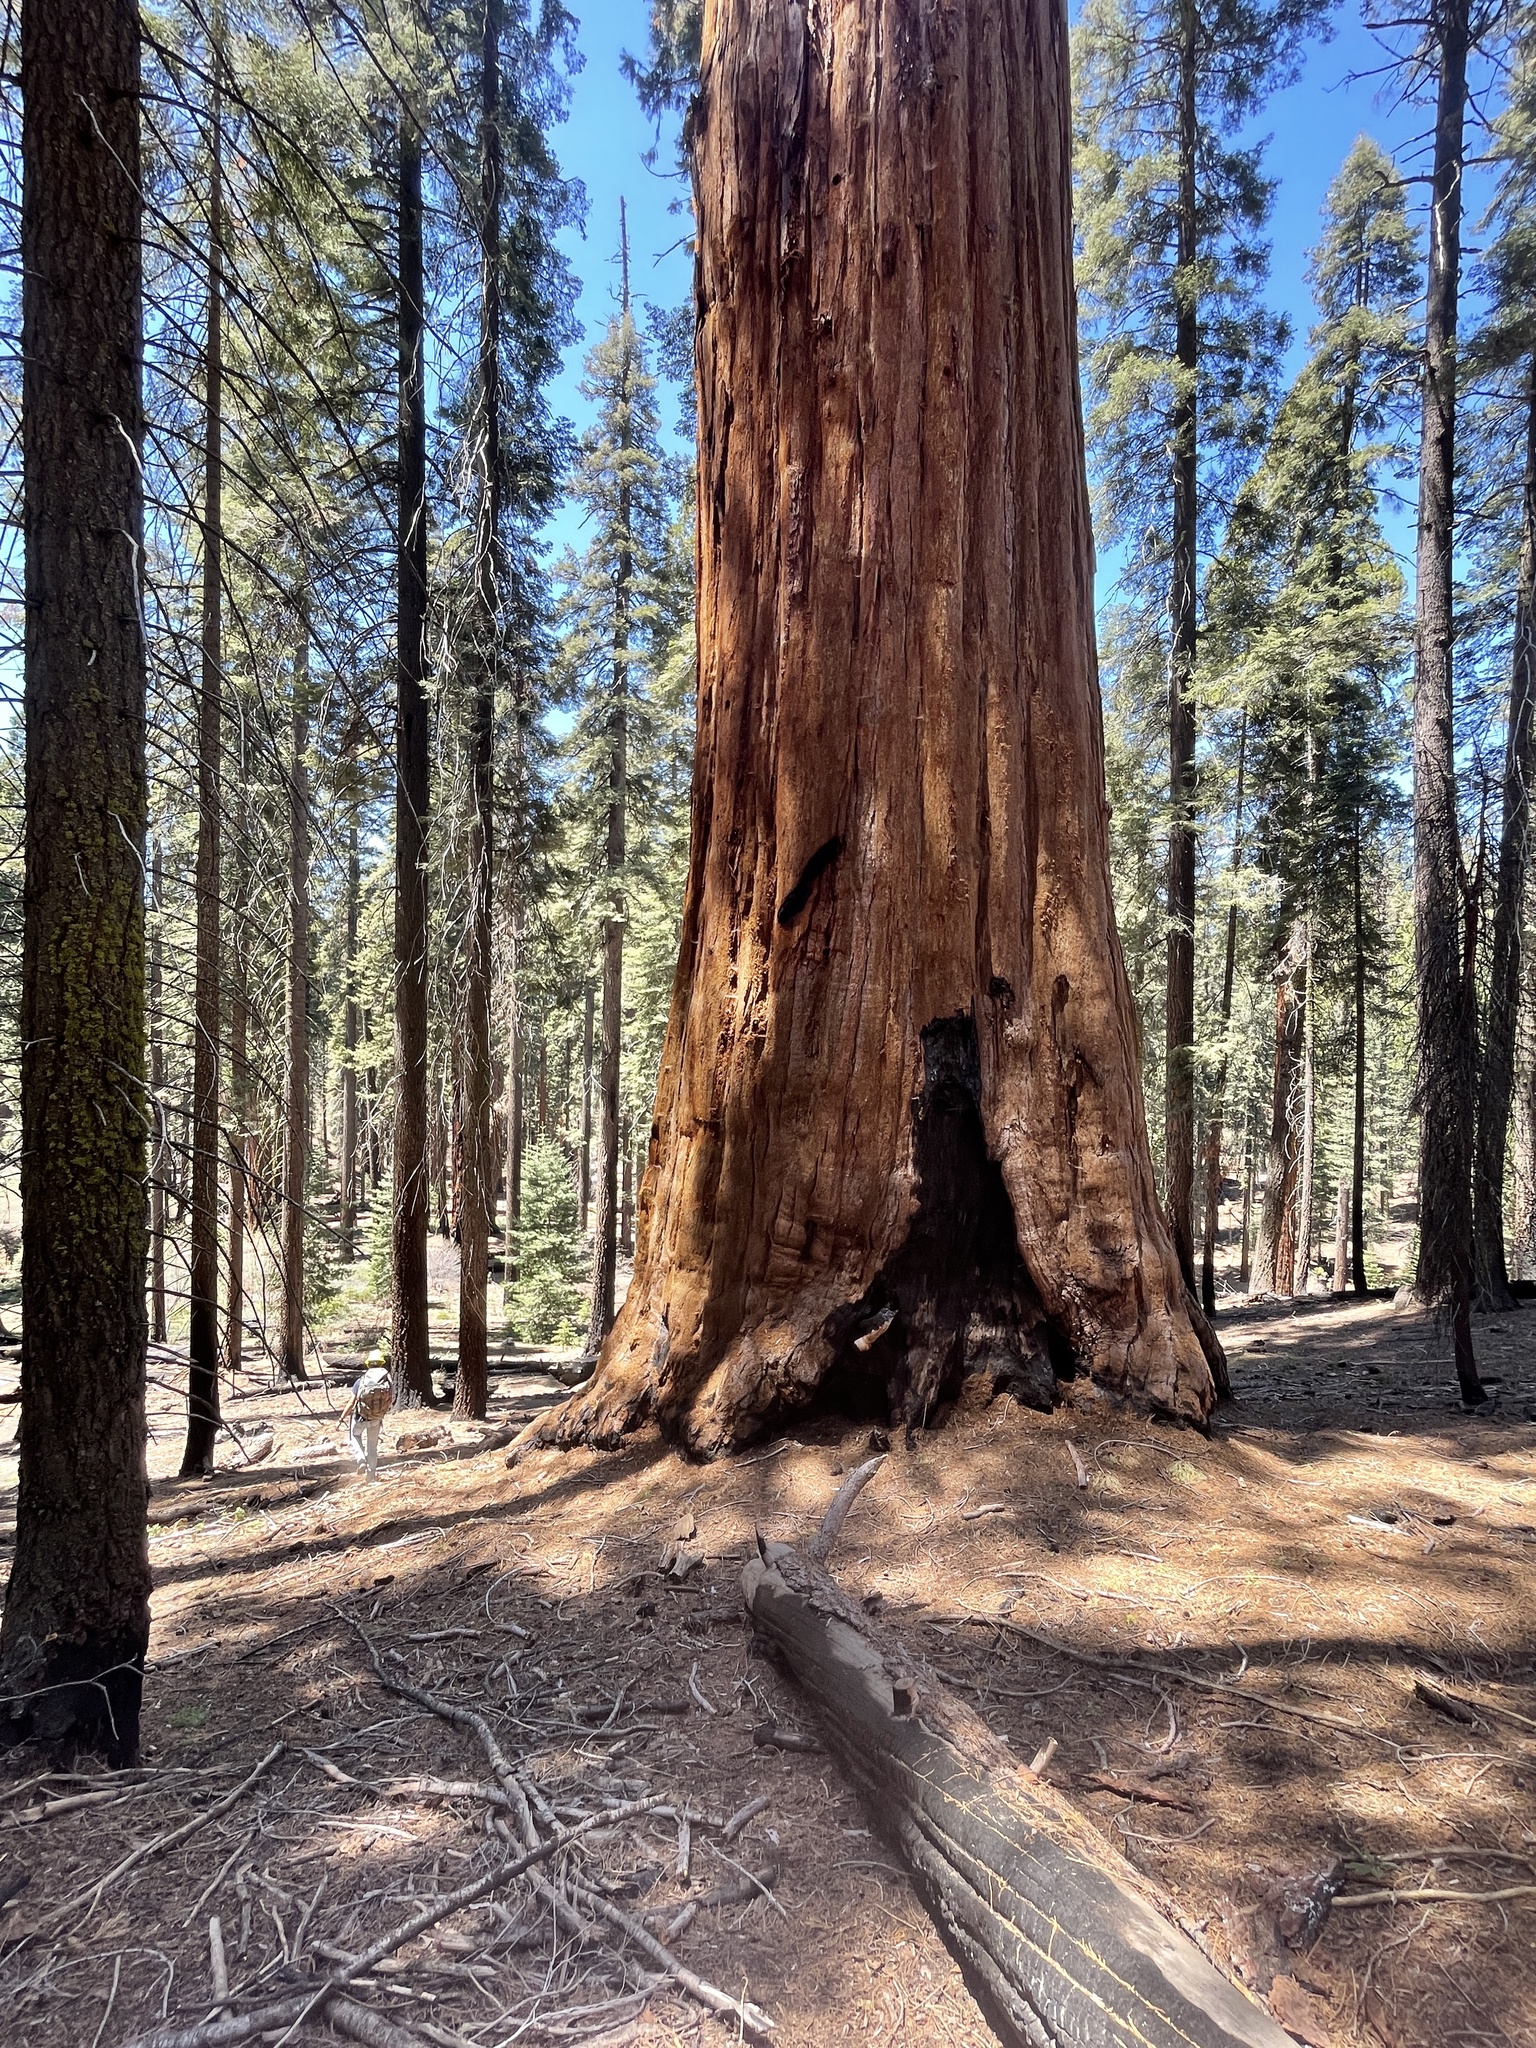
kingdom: Plantae
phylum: Tracheophyta
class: Pinopsida
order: Pinales
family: Cupressaceae
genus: Sequoiadendron
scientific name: Sequoiadendron giganteum
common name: Wellingtonia
